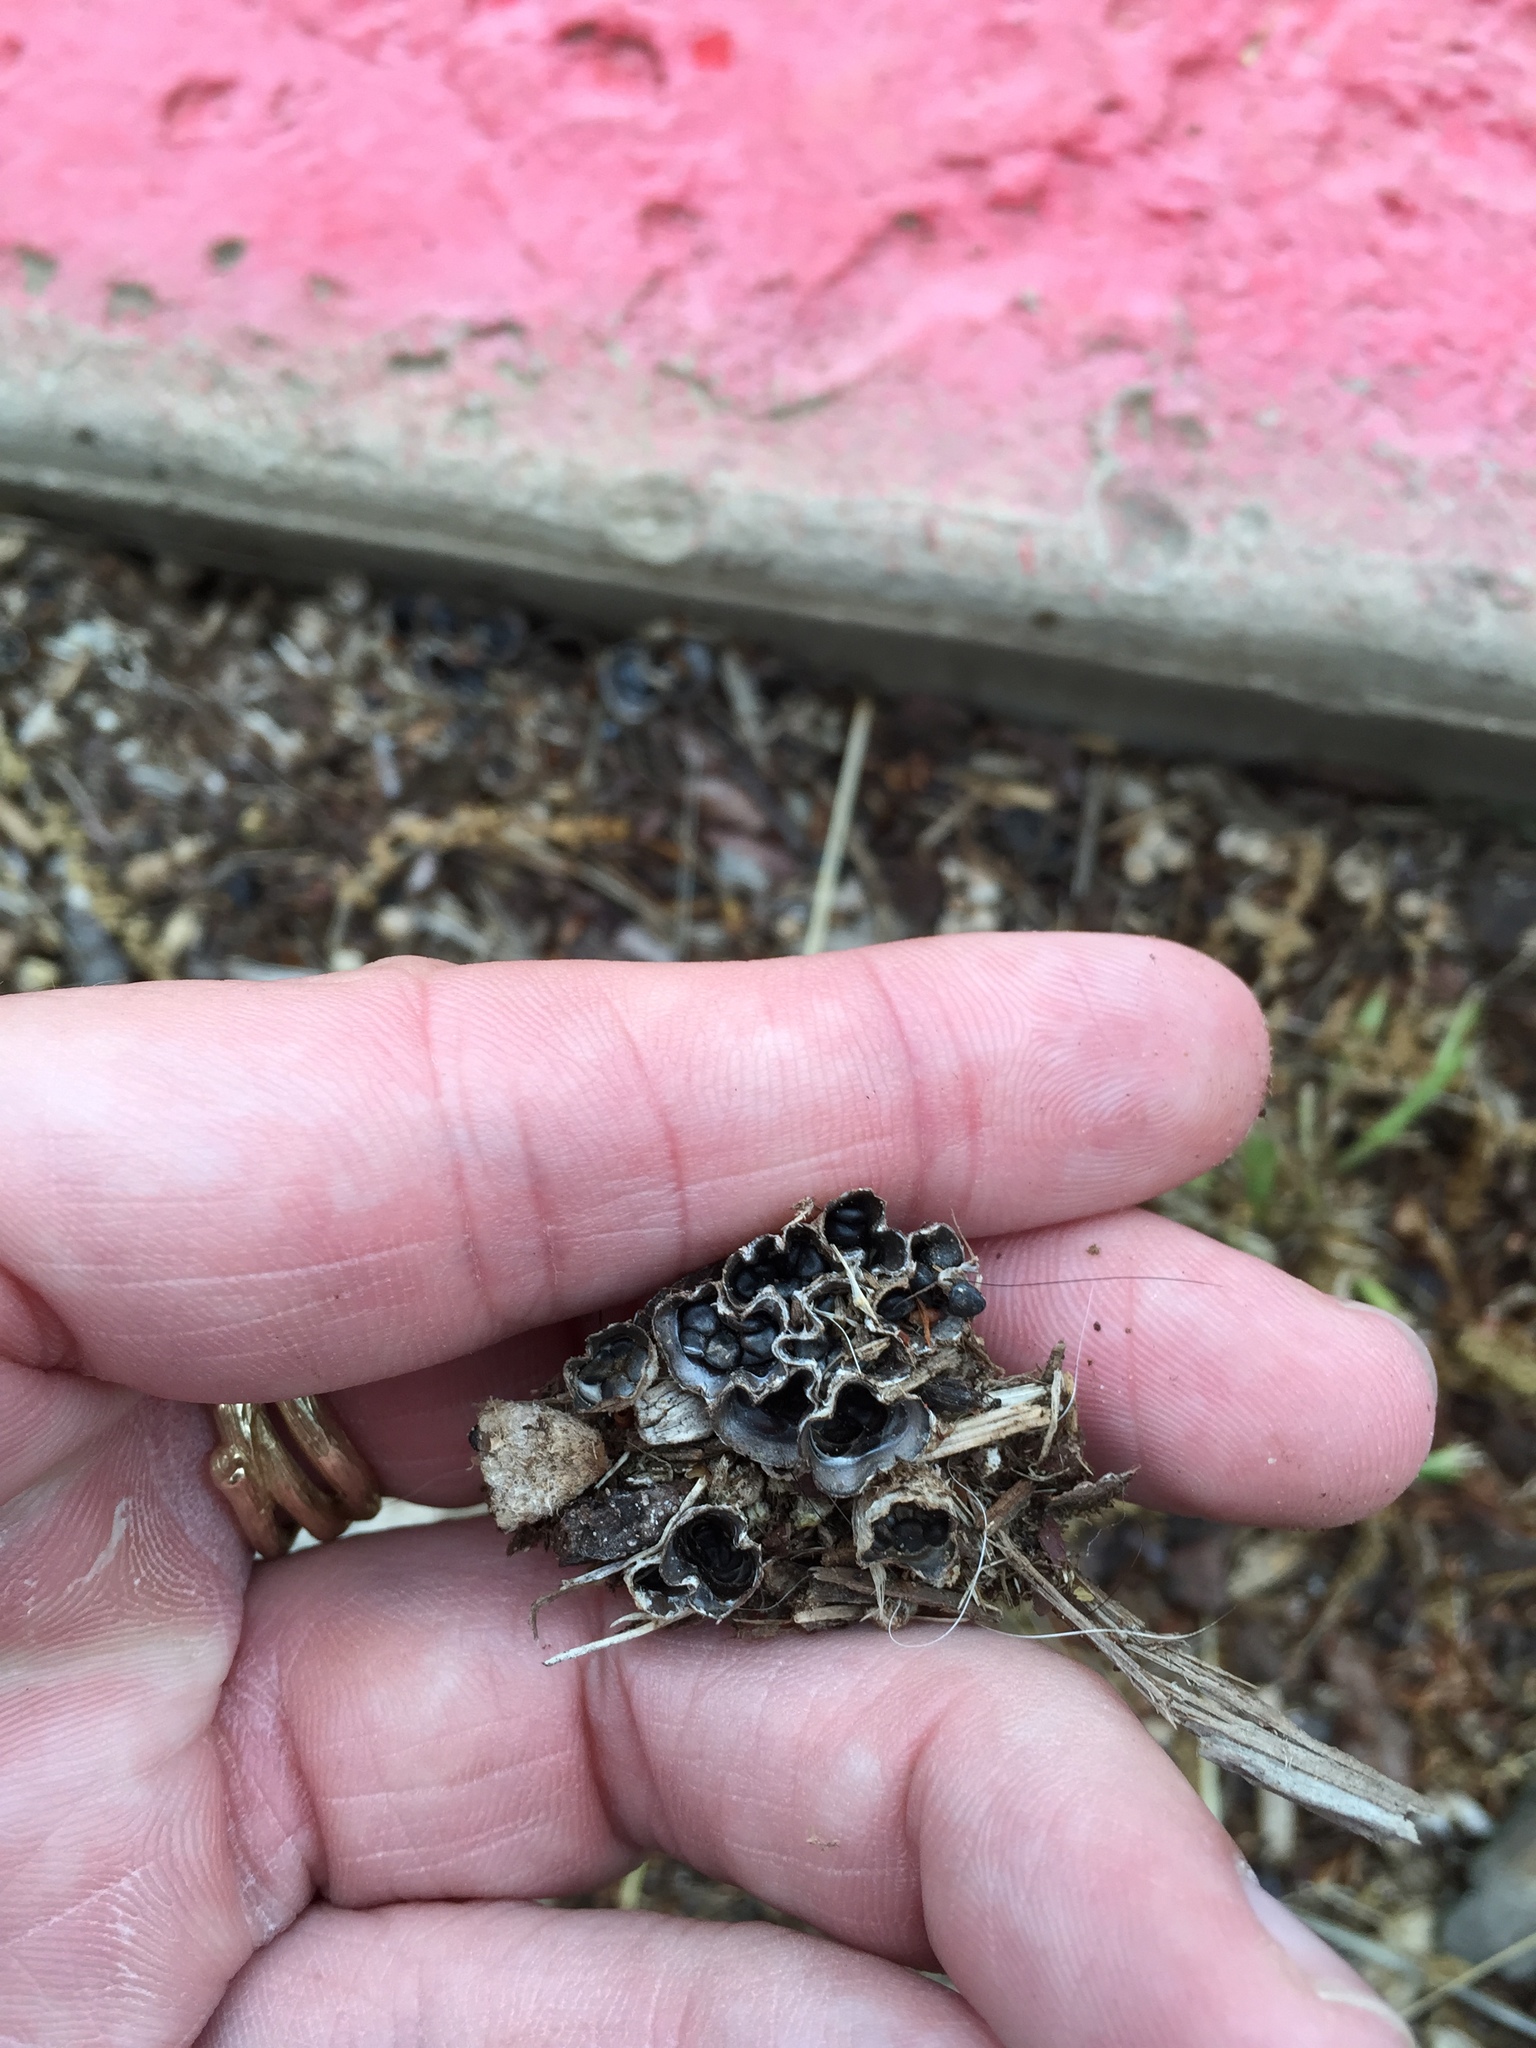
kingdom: Fungi
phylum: Basidiomycota
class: Agaricomycetes
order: Agaricales
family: Agaricaceae
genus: Cyathus
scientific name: Cyathus stercoreus
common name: Dung bird's nest
